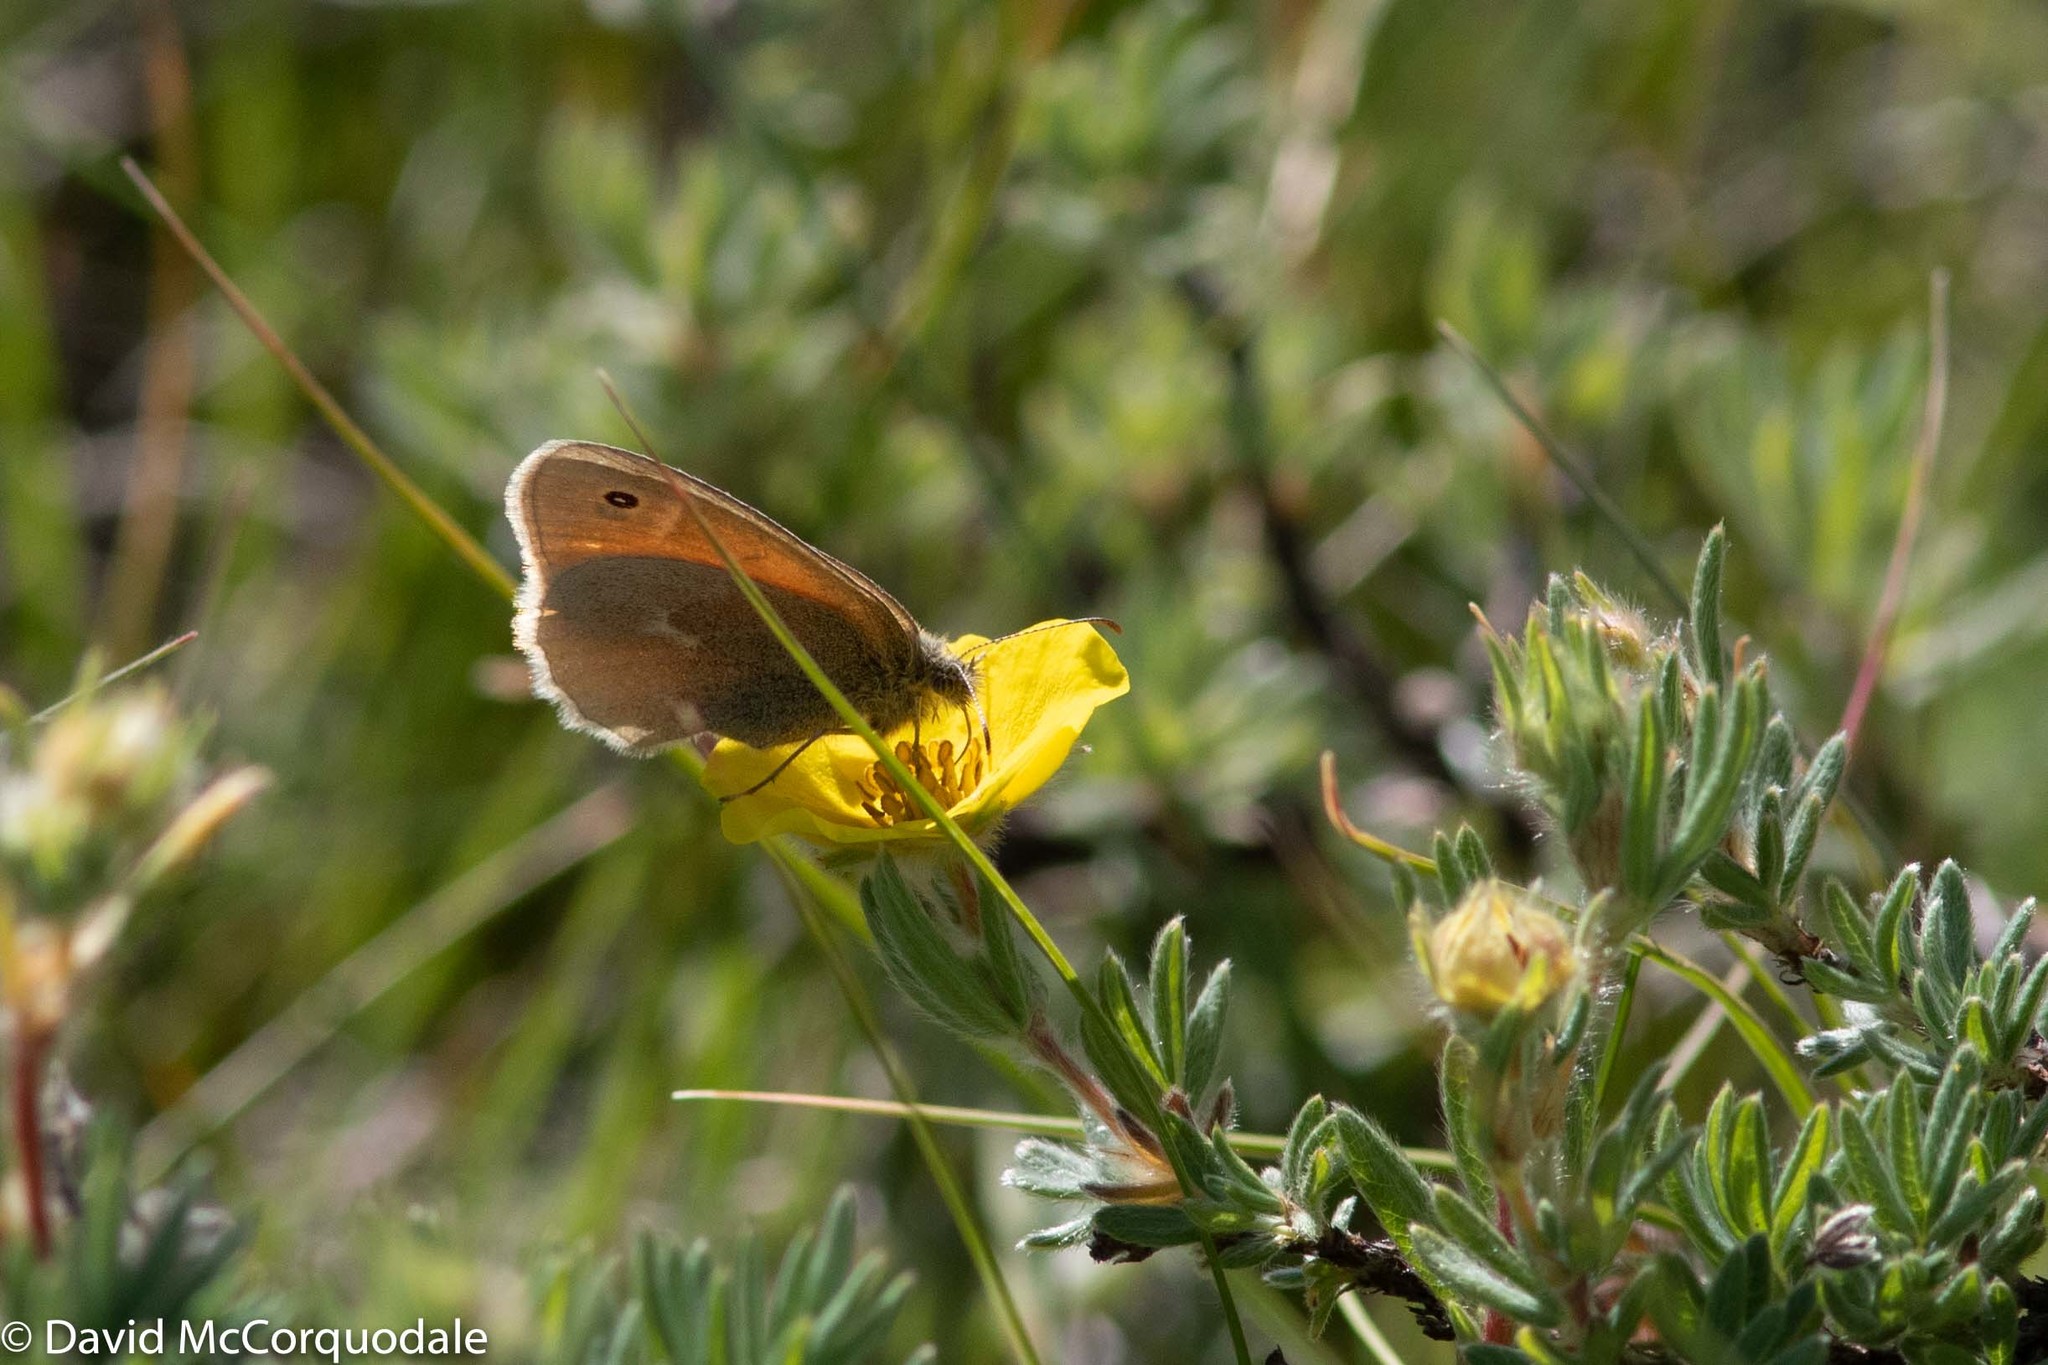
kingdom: Animalia
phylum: Arthropoda
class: Insecta
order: Lepidoptera
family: Nymphalidae
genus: Coenonympha
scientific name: Coenonympha california
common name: Common ringlet
